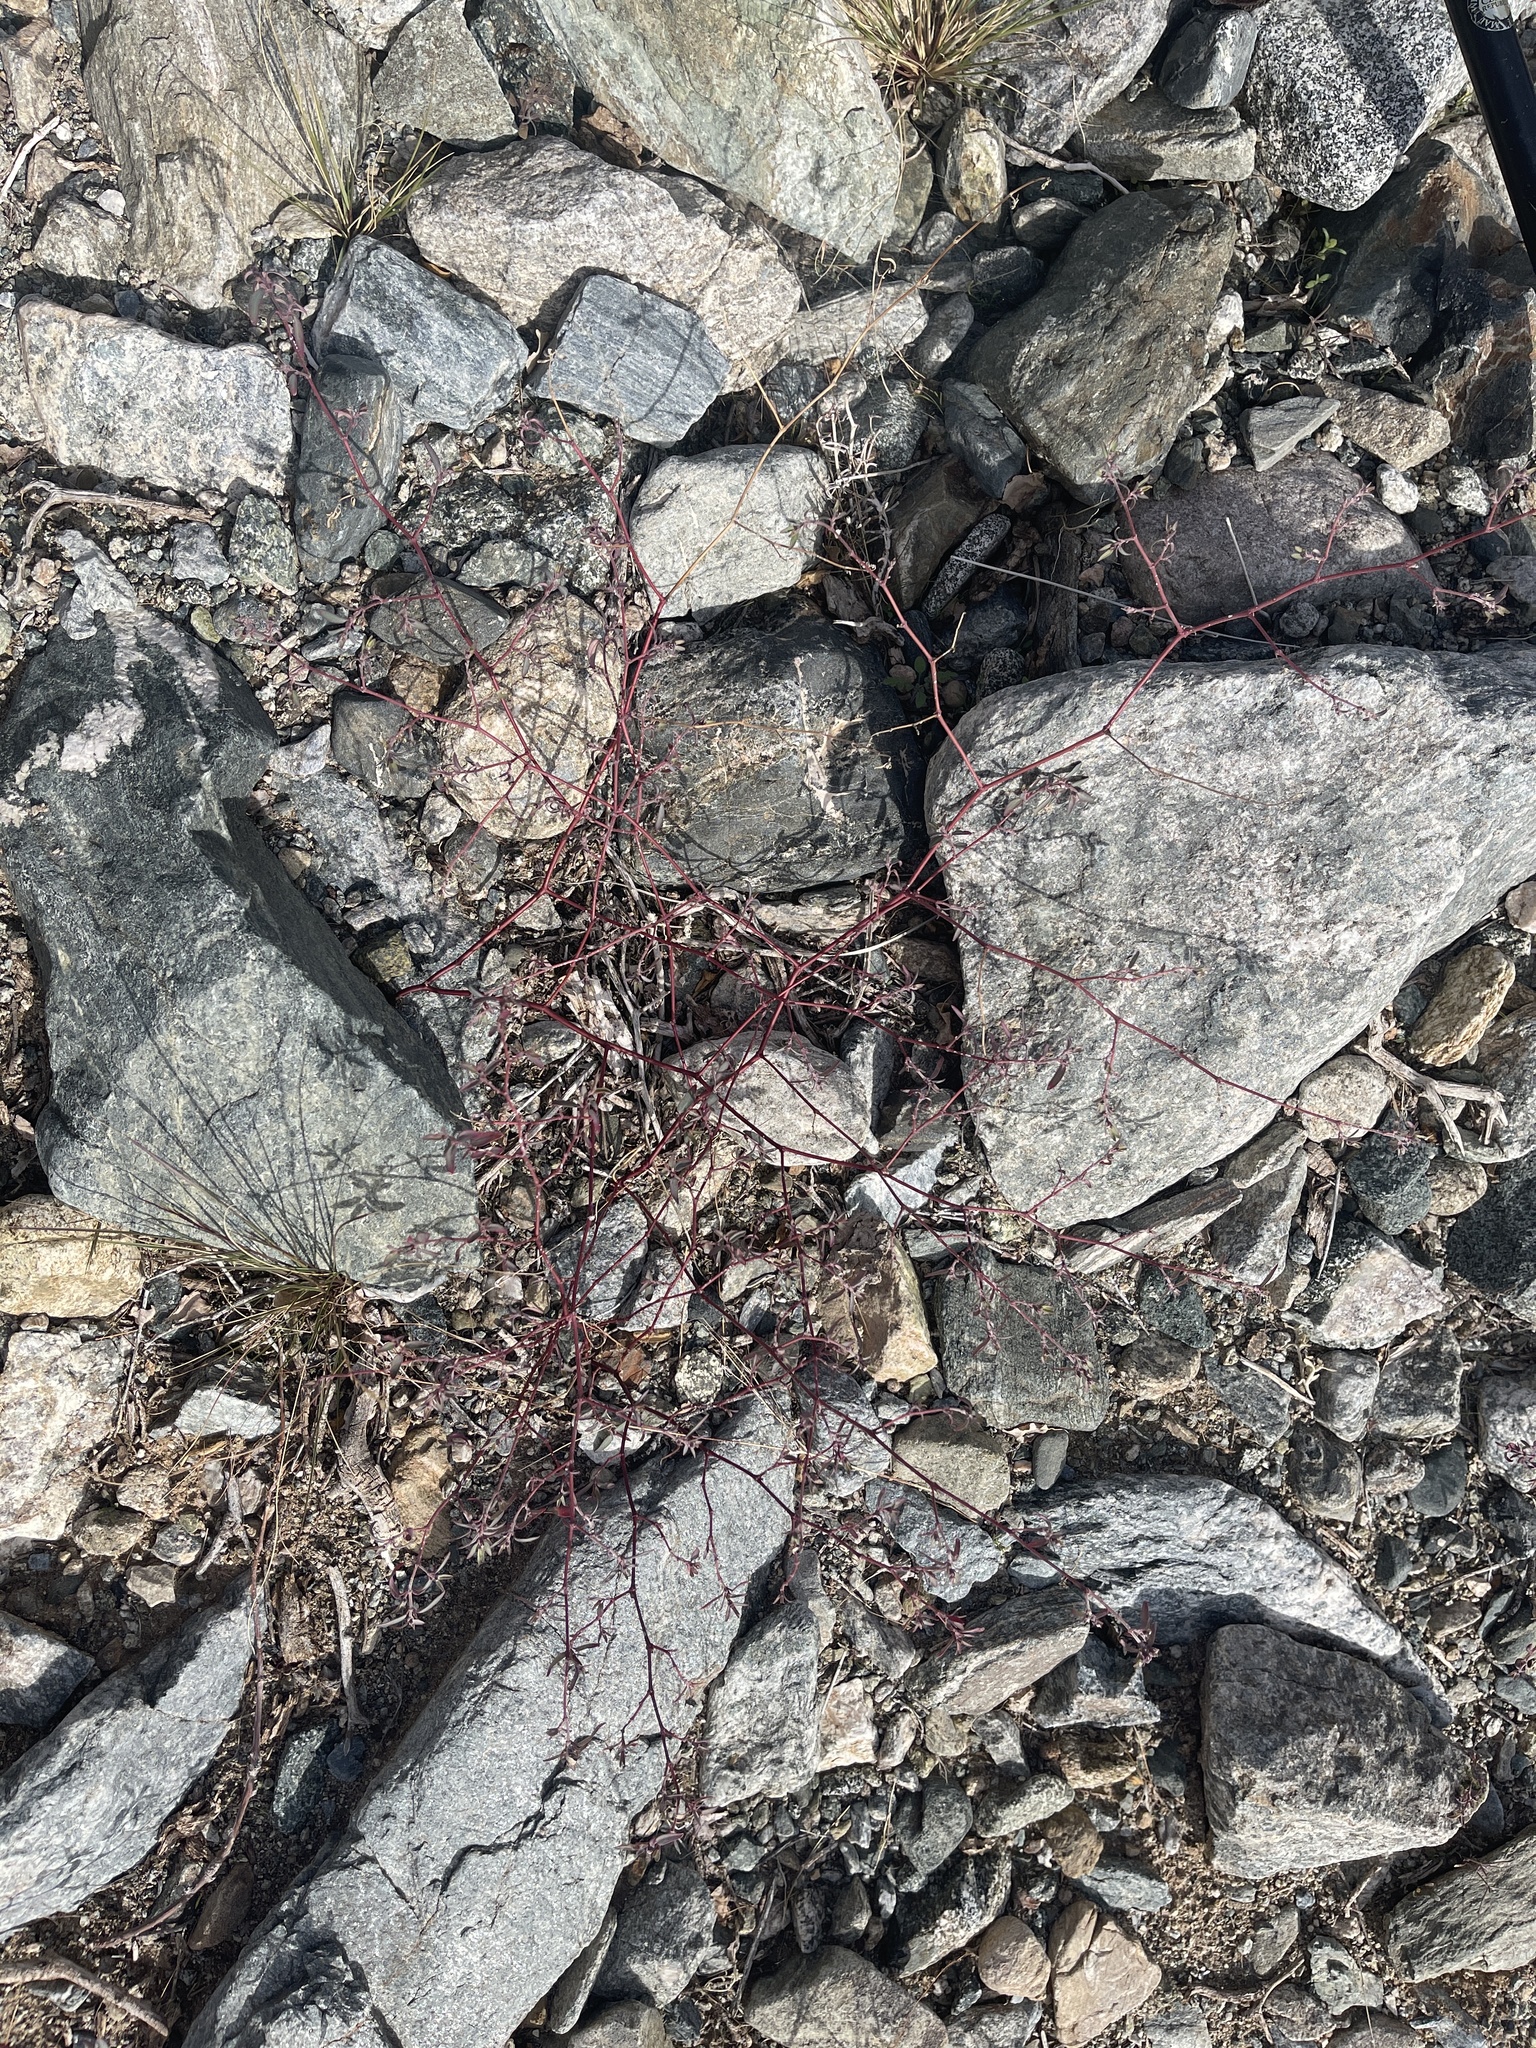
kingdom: Plantae
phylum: Tracheophyta
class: Magnoliopsida
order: Malpighiales
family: Euphorbiaceae
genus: Euphorbia
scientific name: Euphorbia pediculifera
